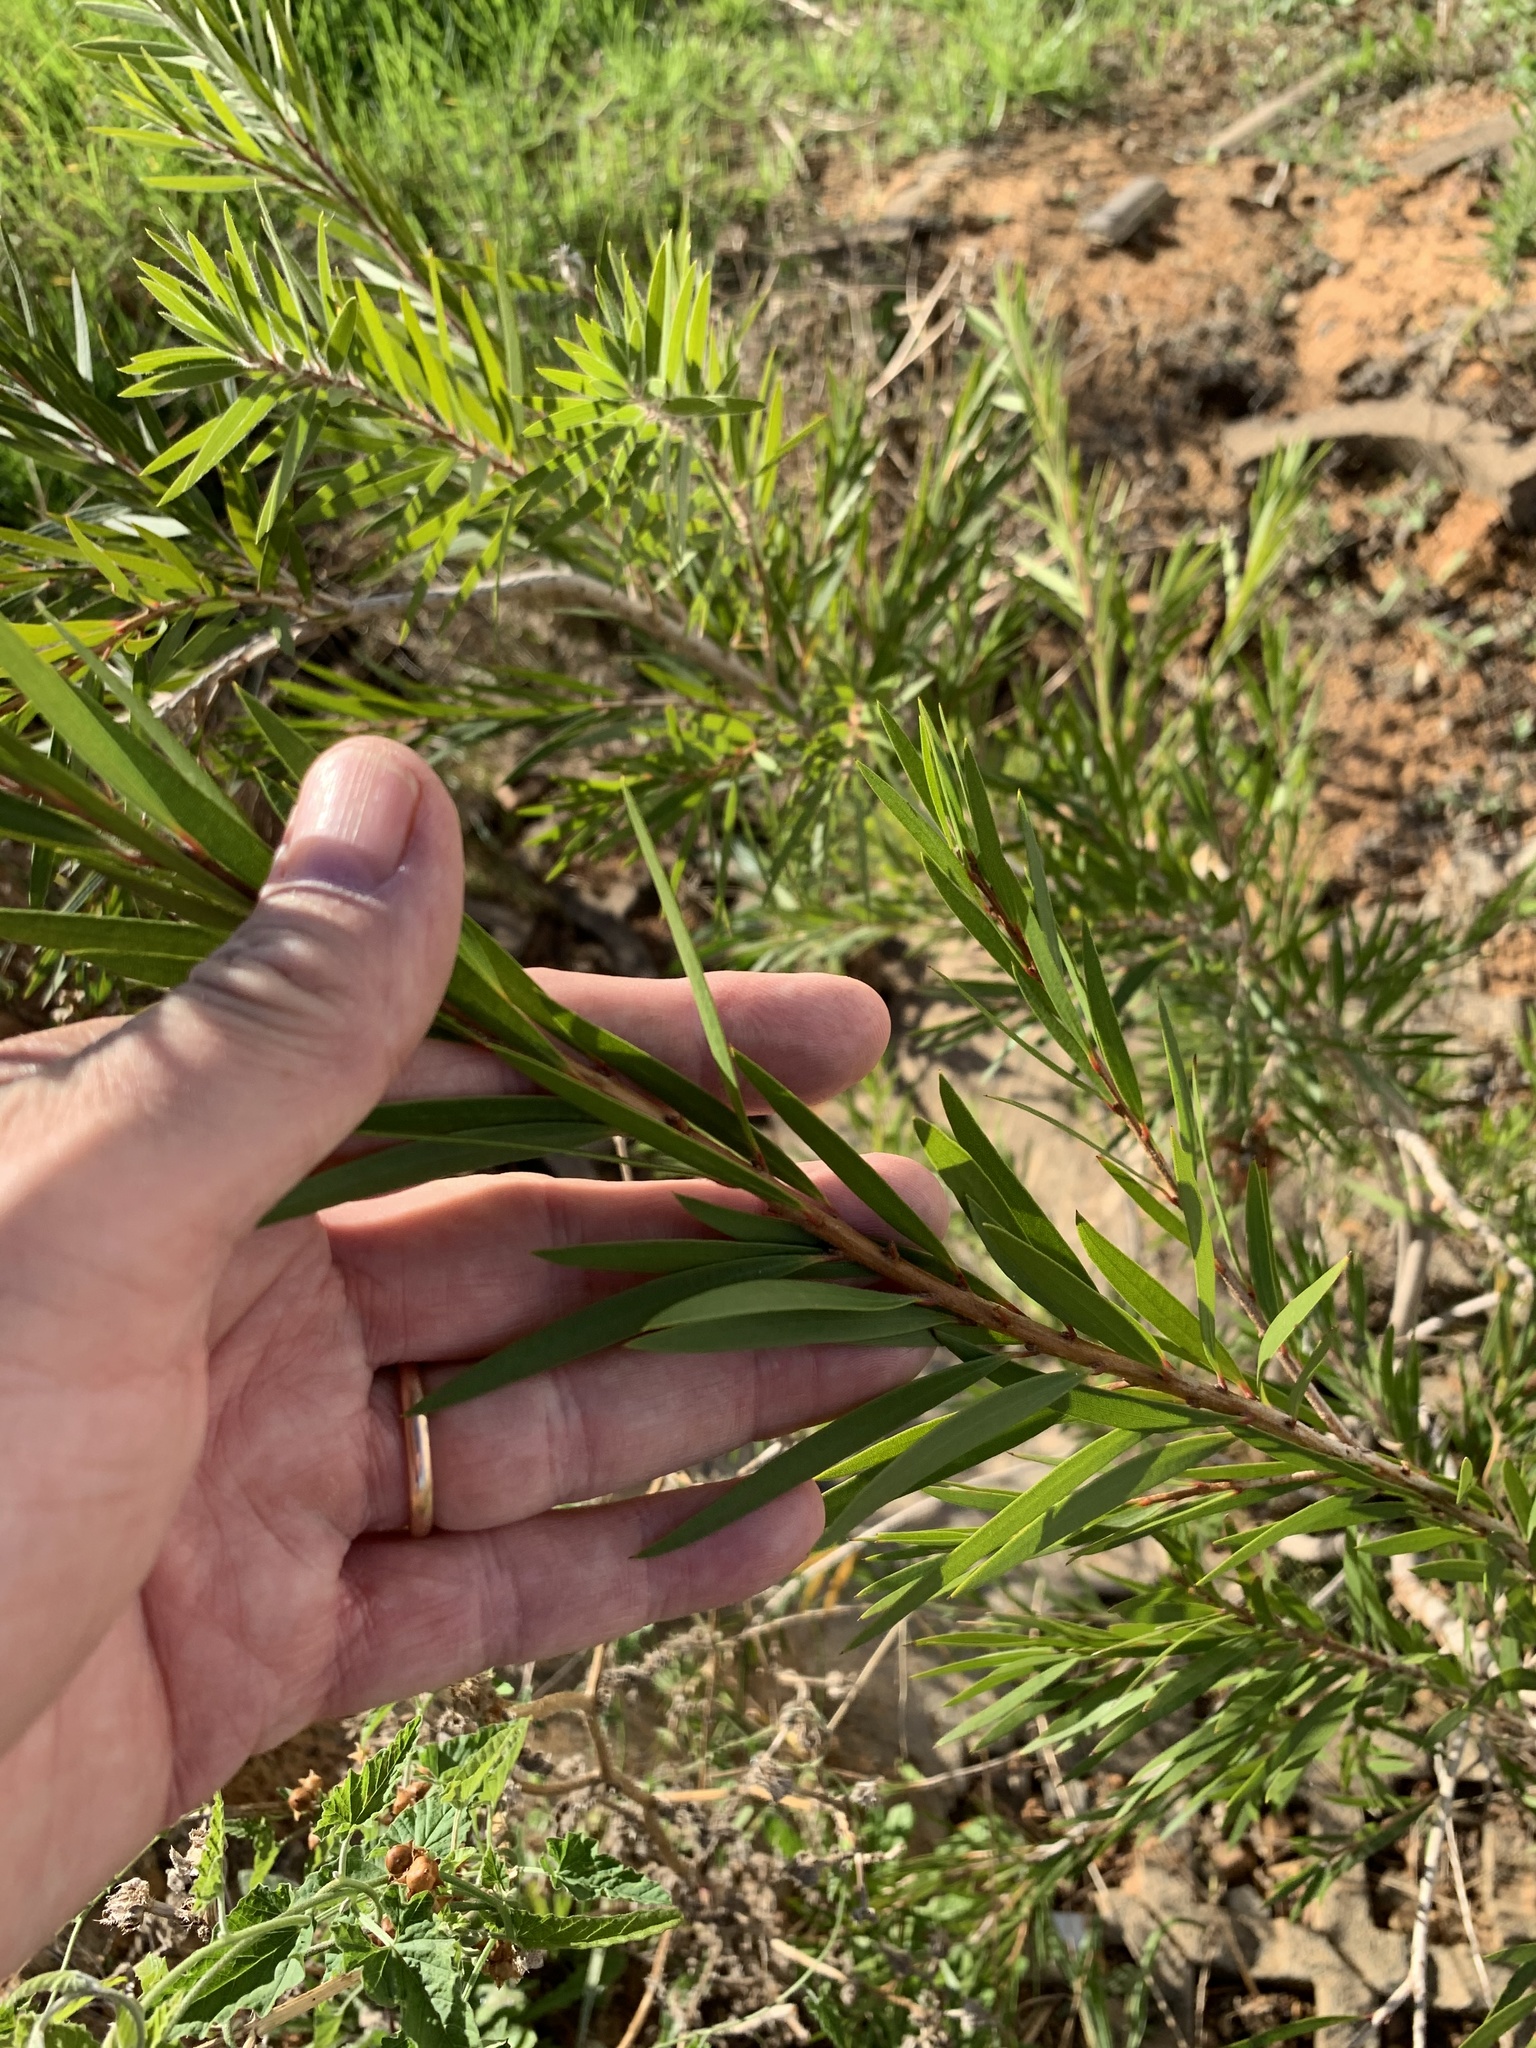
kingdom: Plantae
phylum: Tracheophyta
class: Magnoliopsida
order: Myrtales
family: Myrtaceae
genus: Callistemon
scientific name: Callistemon viminalis
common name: Drooping bottlebrush
